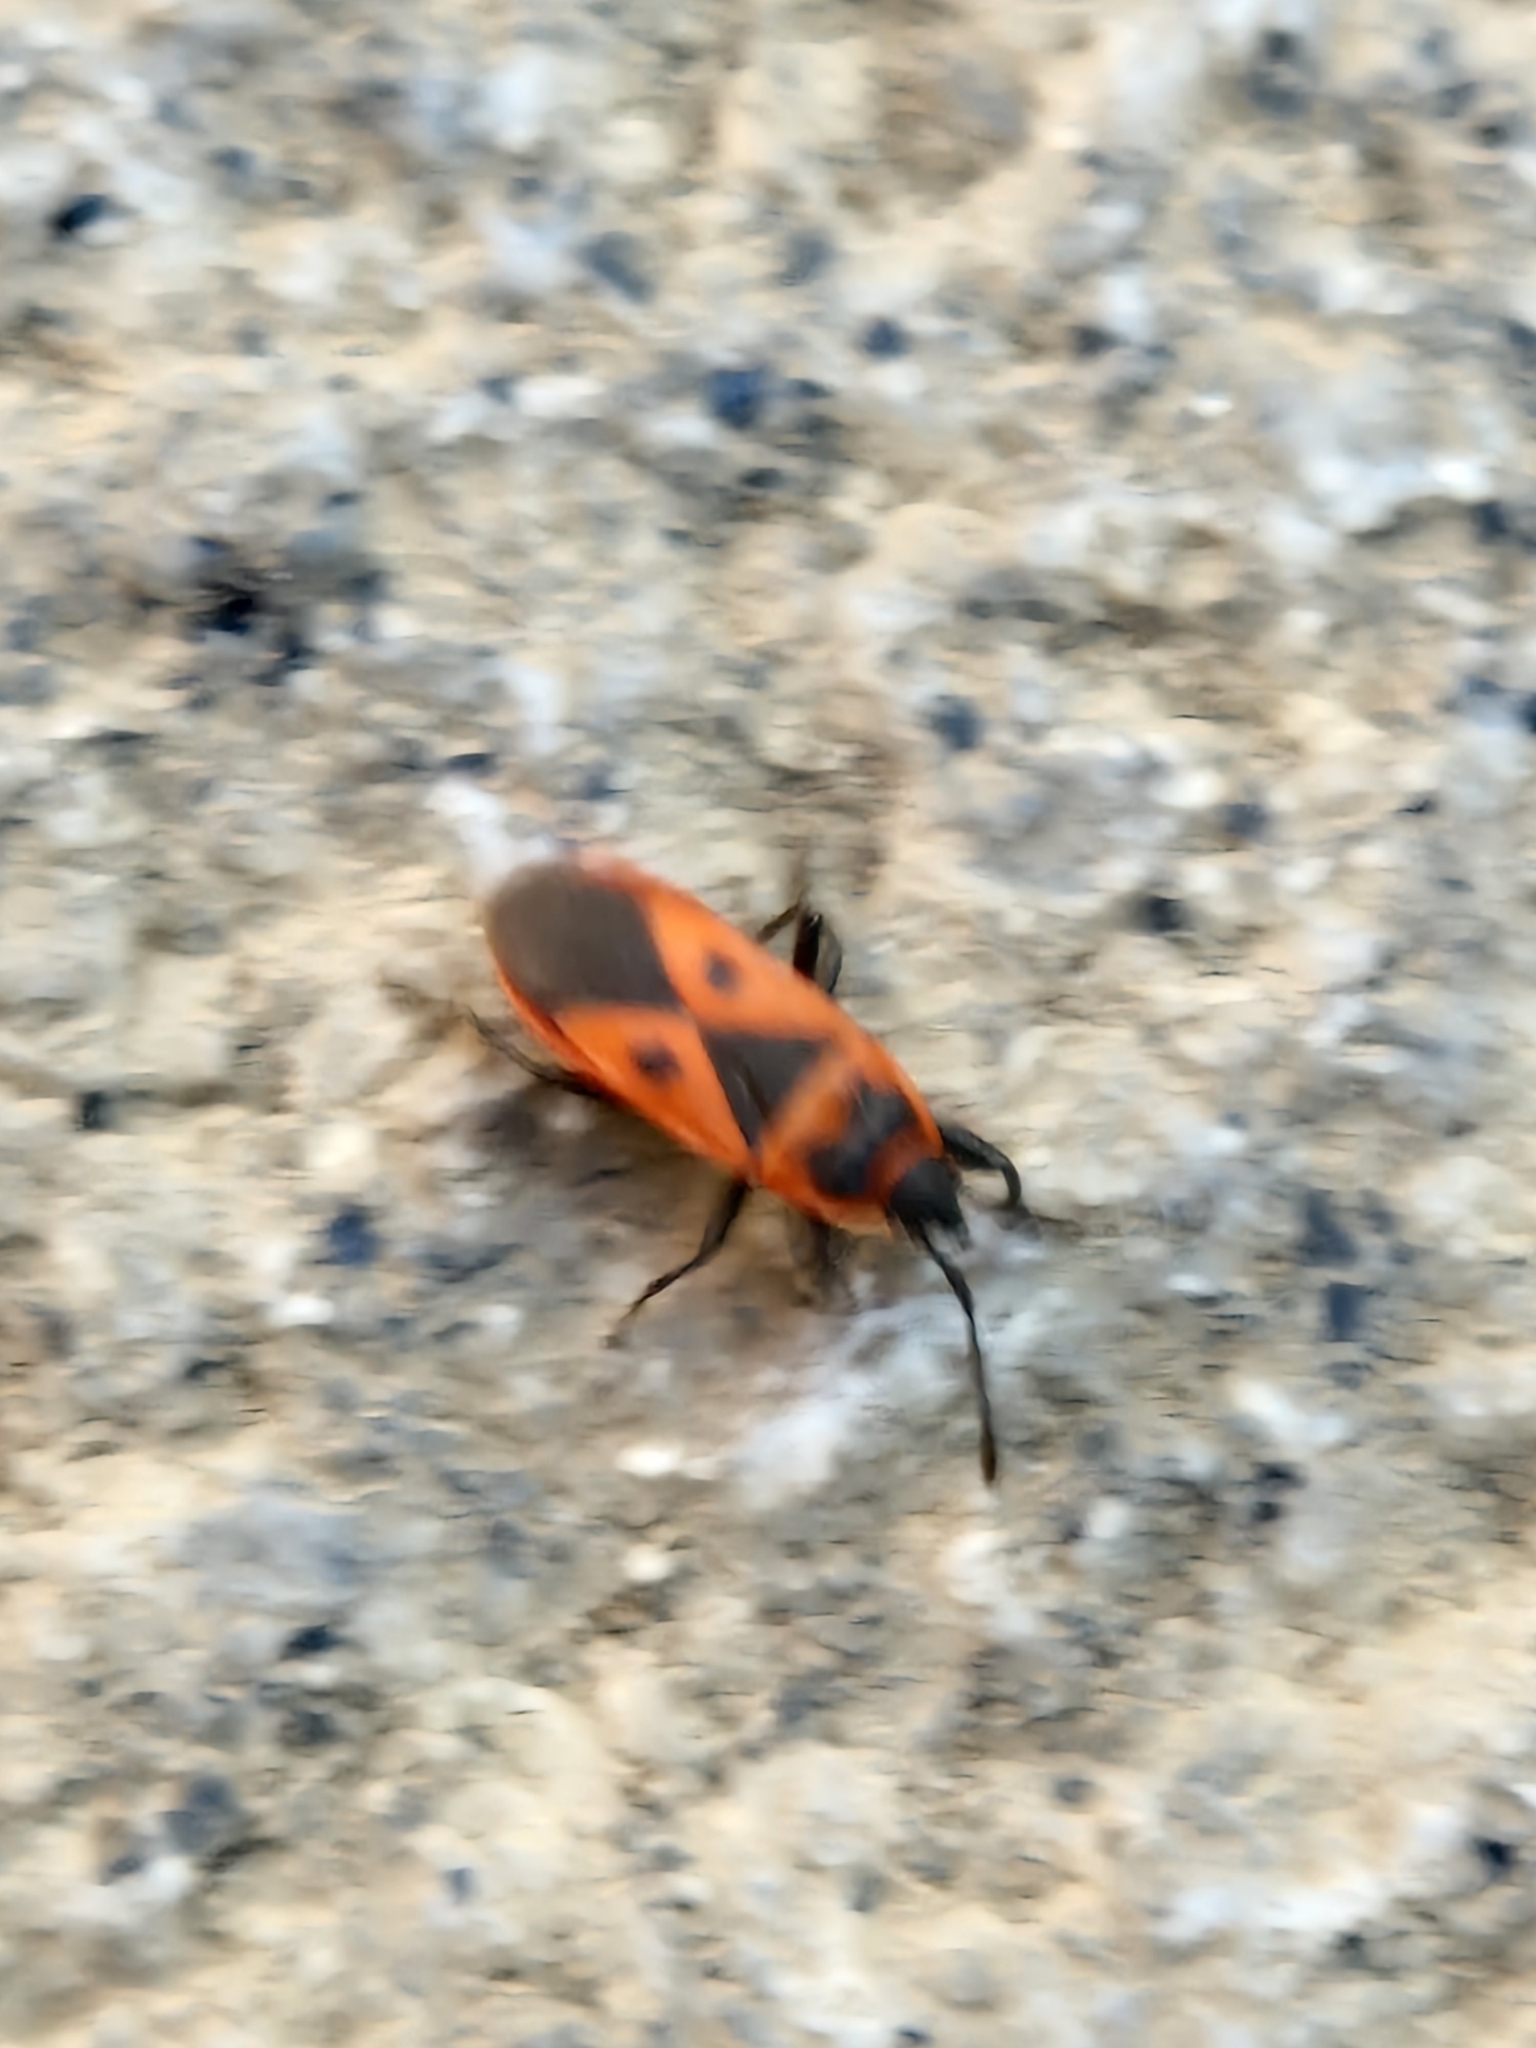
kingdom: Animalia
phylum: Arthropoda
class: Insecta
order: Hemiptera
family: Pyrrhocoridae
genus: Scantius
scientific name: Scantius aegyptius
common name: Red bug
